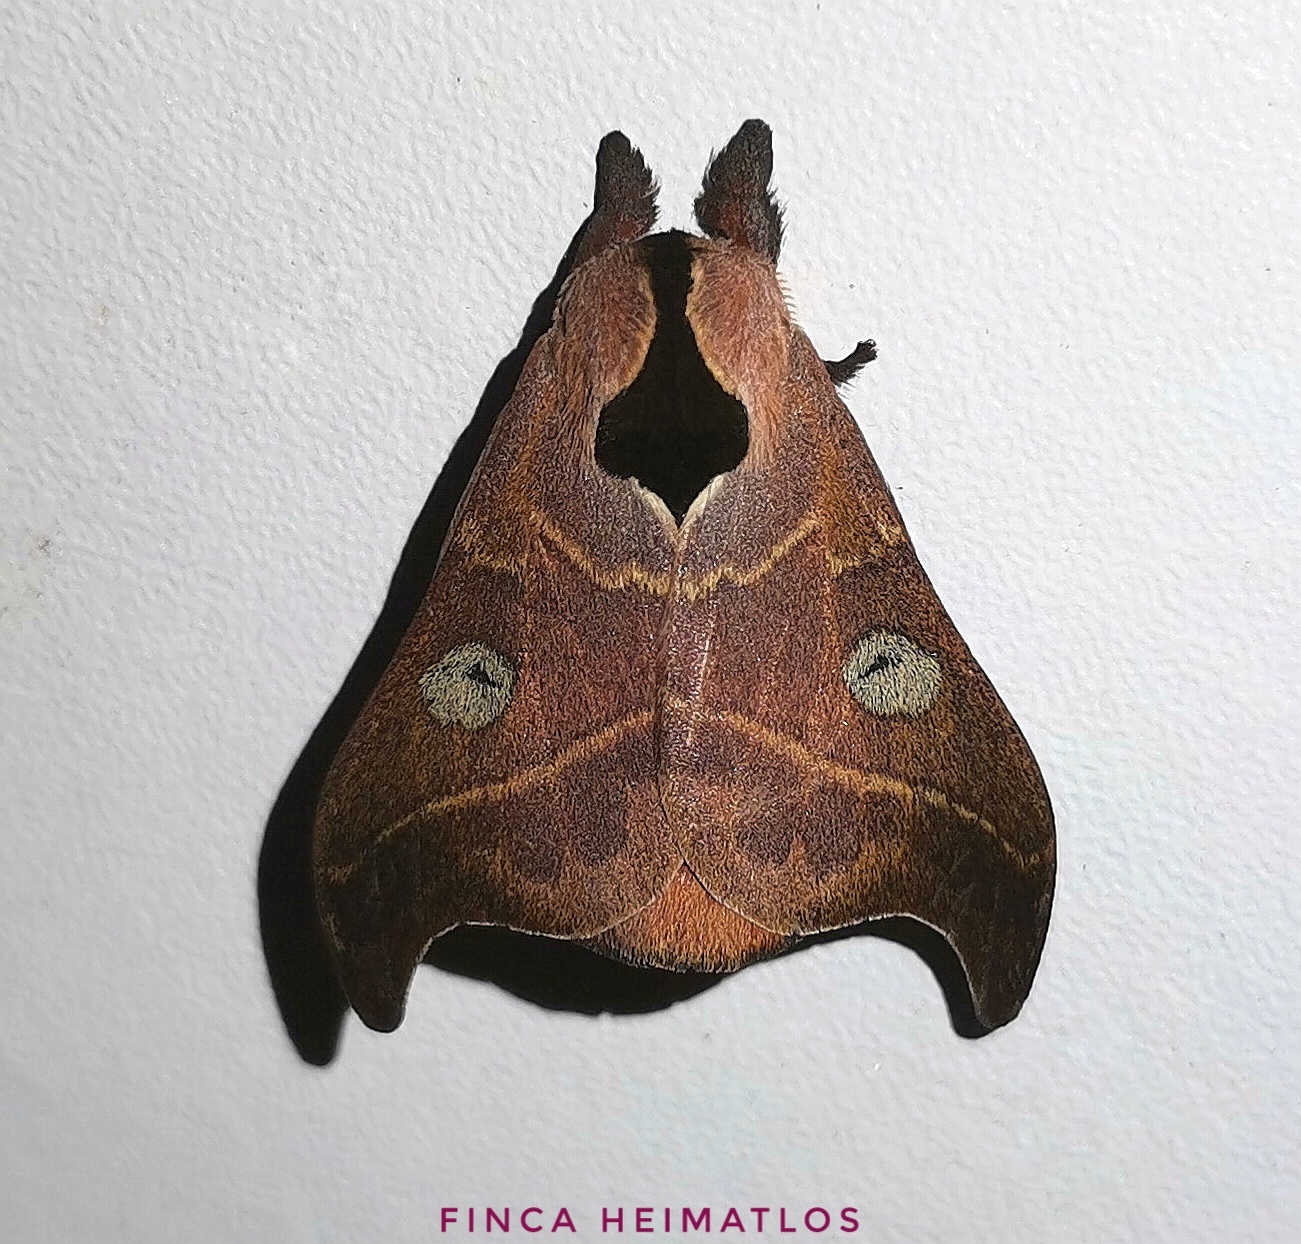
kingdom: Animalia
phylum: Arthropoda
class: Insecta
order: Lepidoptera
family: Saturniidae
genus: Hylesia
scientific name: Hylesia nanus
